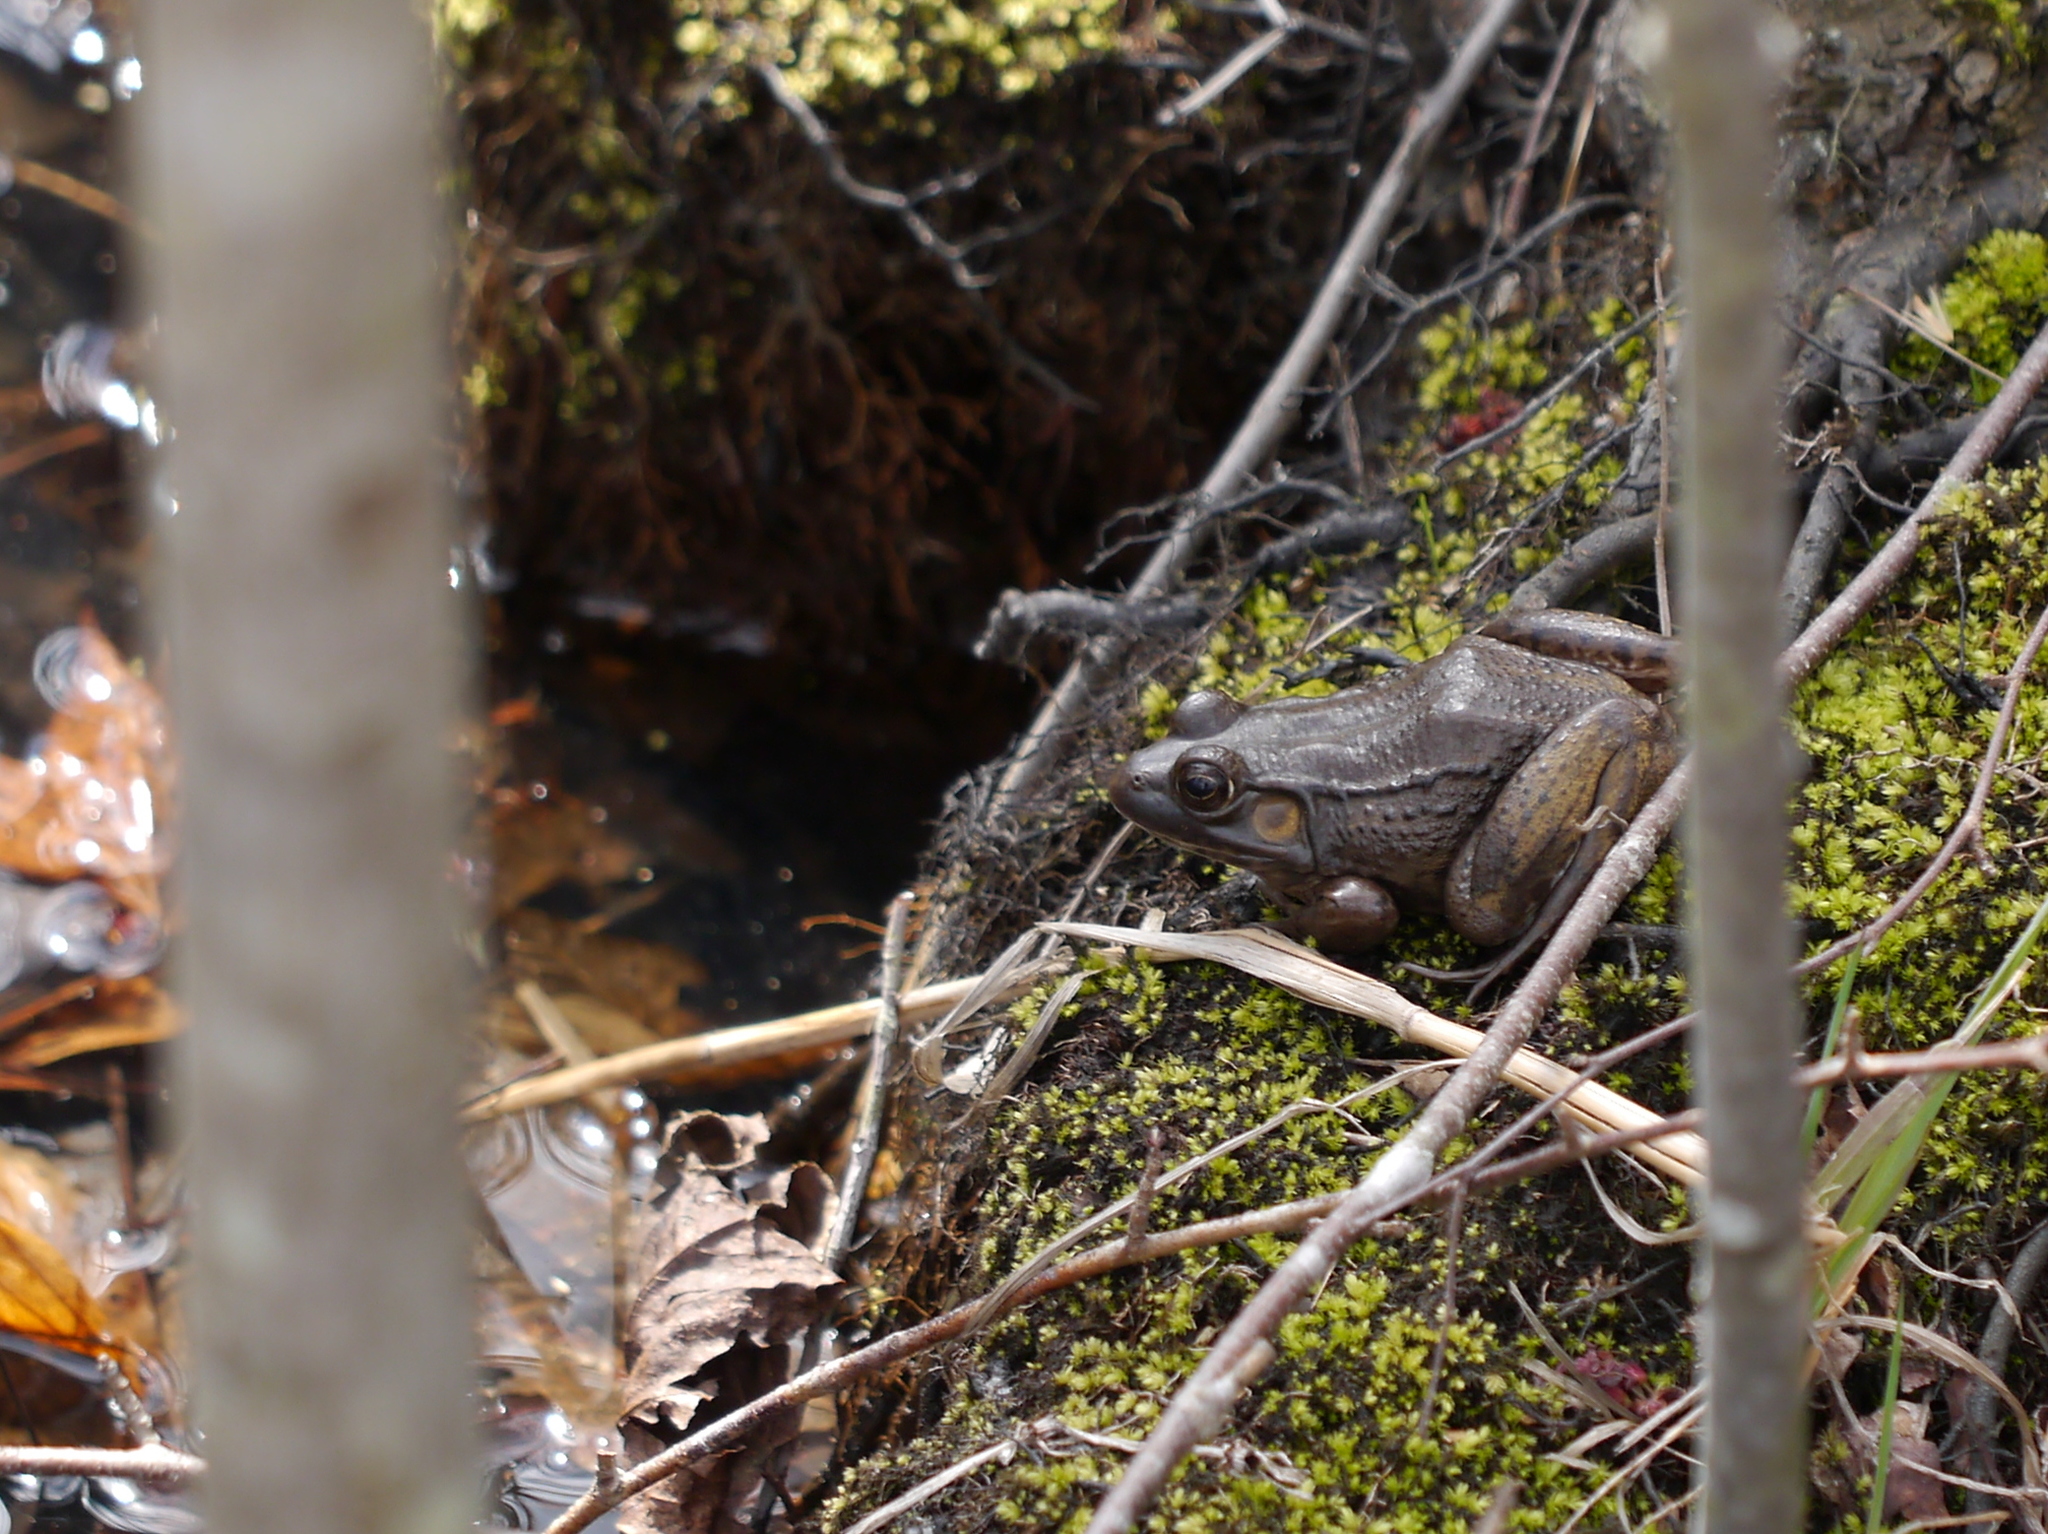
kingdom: Animalia
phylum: Chordata
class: Amphibia
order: Anura
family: Ranidae
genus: Lithobates
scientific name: Lithobates clamitans
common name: Green frog
